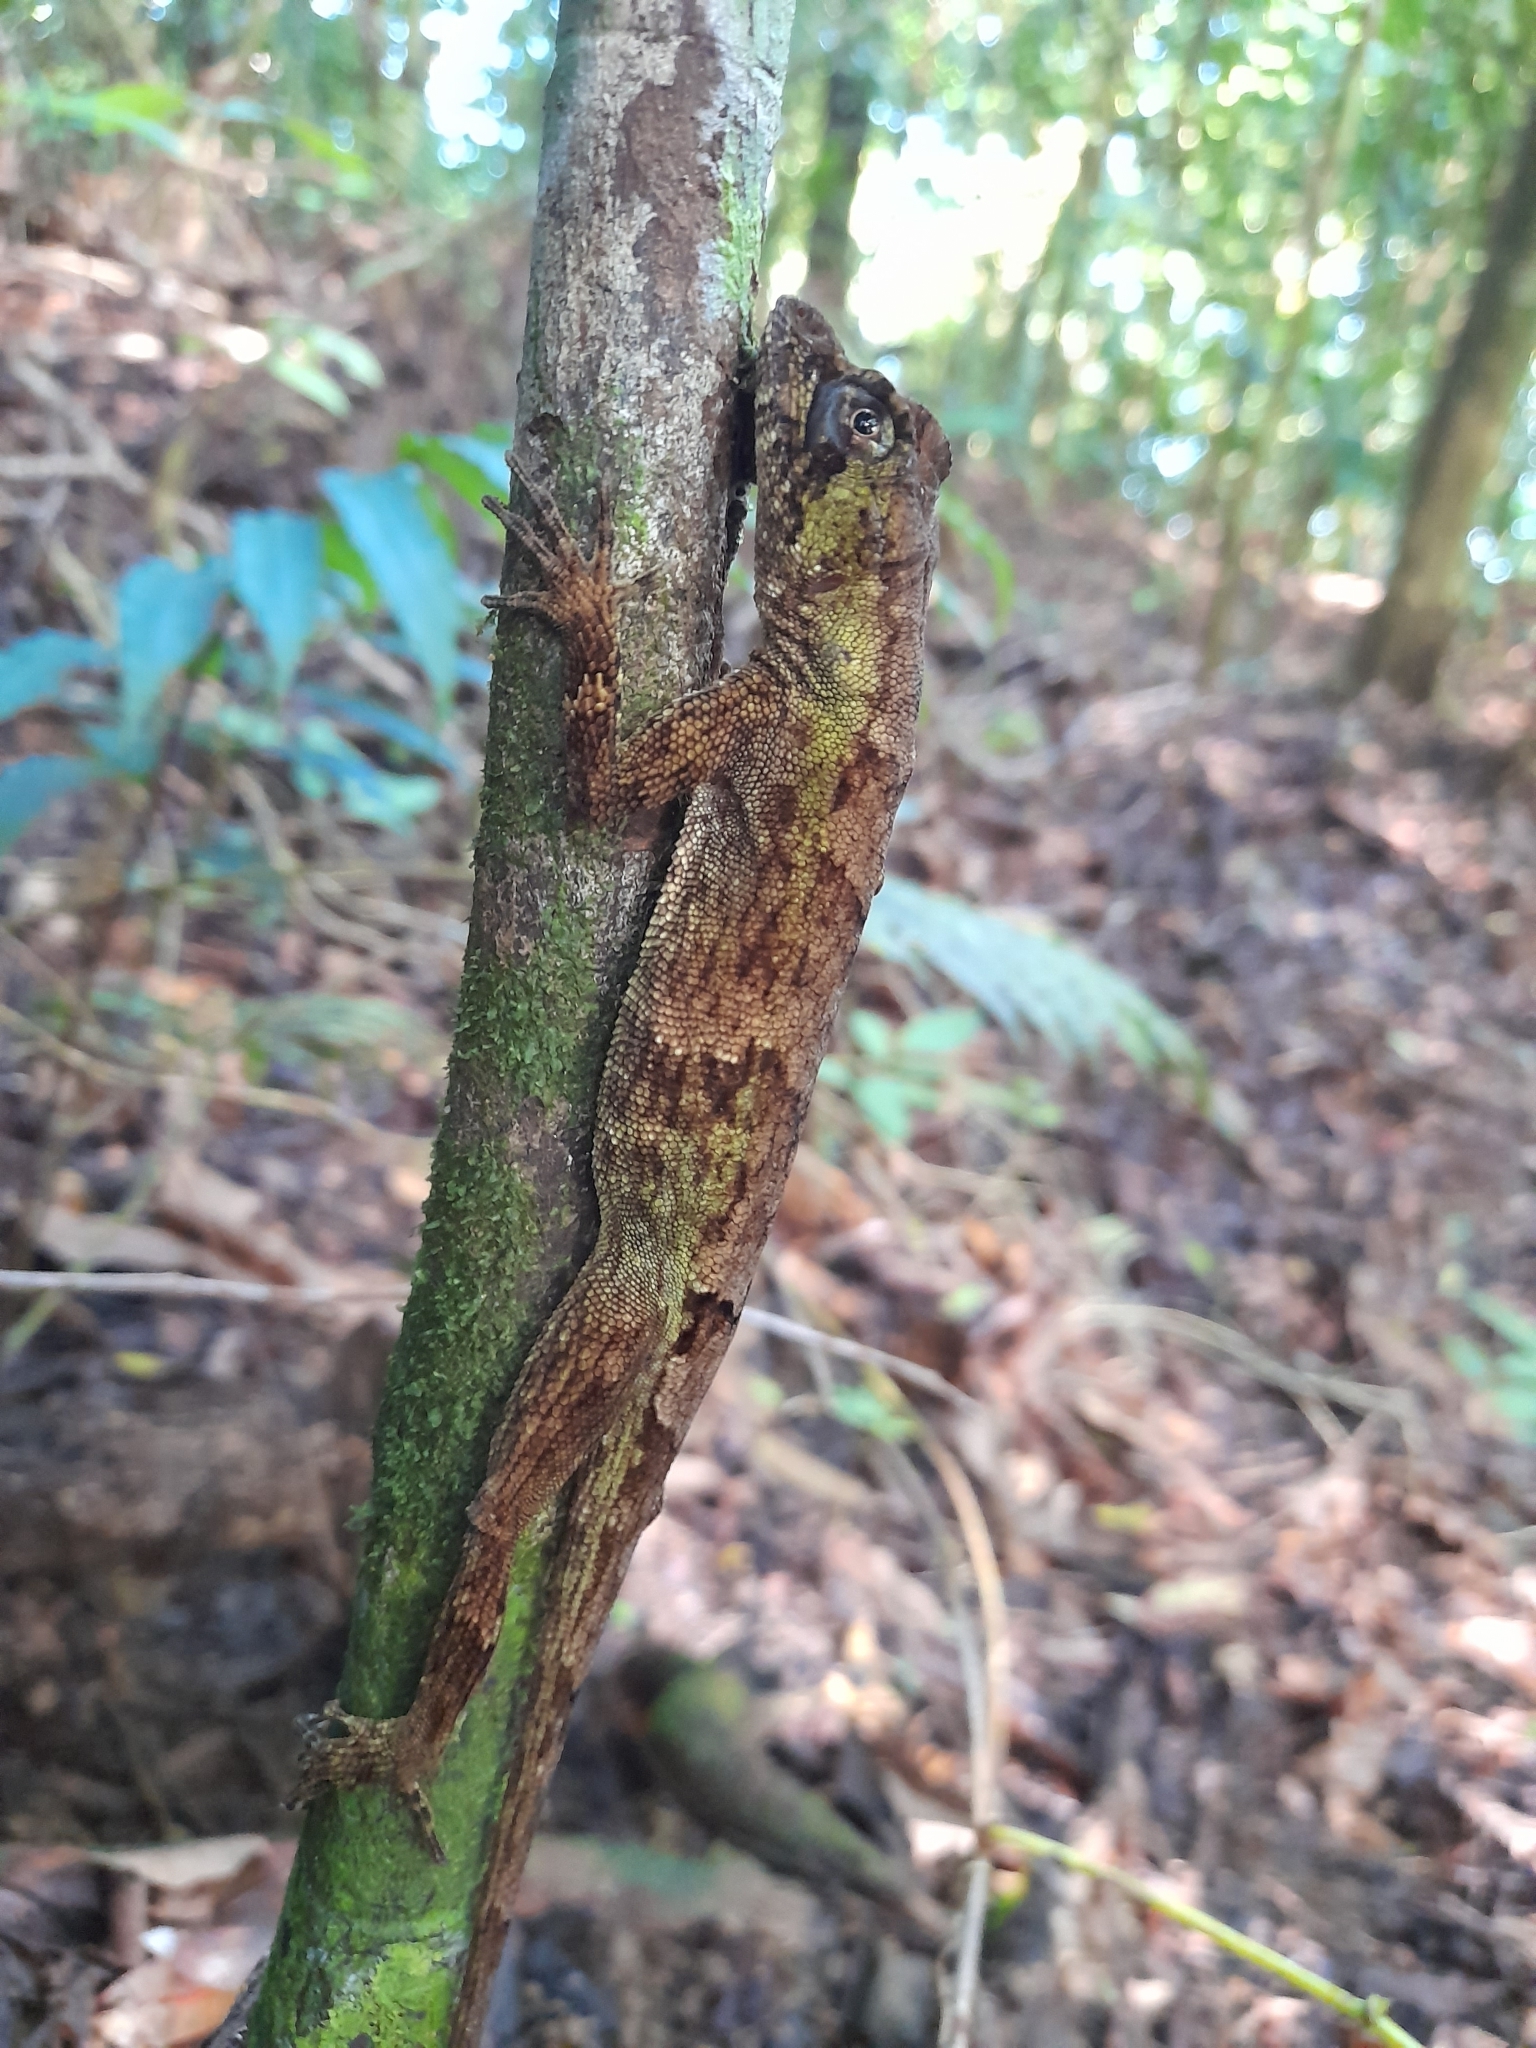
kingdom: Animalia
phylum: Chordata
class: Squamata
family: Dactyloidae
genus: Anolis
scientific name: Anolis capito
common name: Bighead anole
